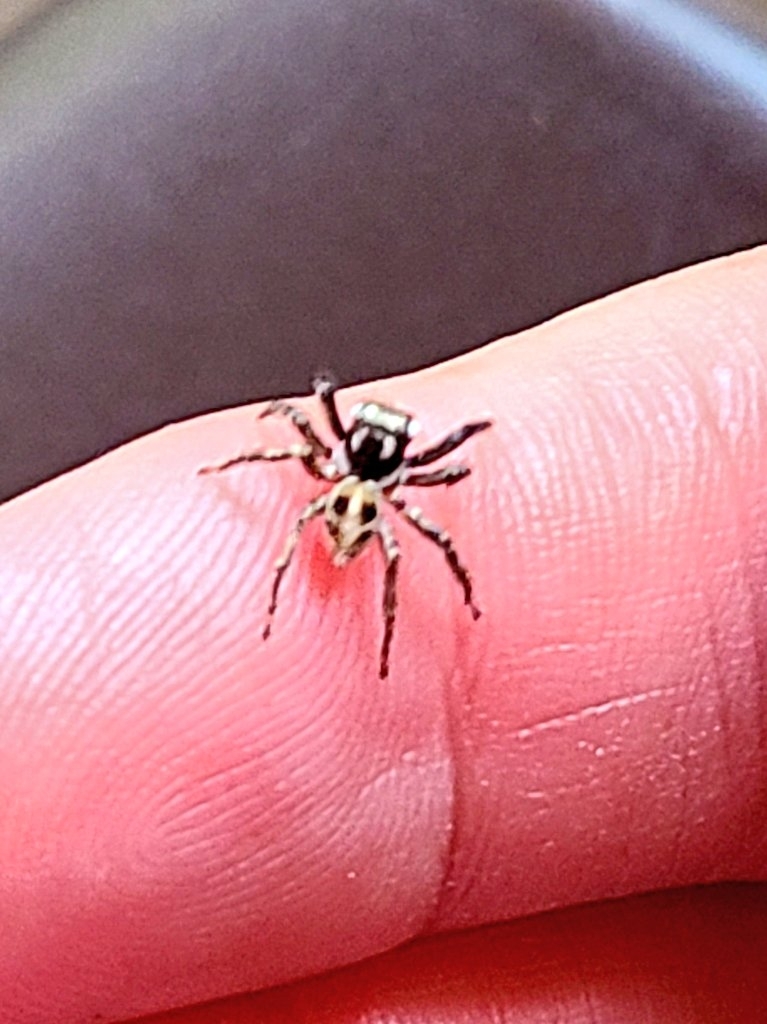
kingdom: Animalia
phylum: Arthropoda
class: Arachnida
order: Araneae
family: Salticidae
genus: Anasaitis
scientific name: Anasaitis canosa
